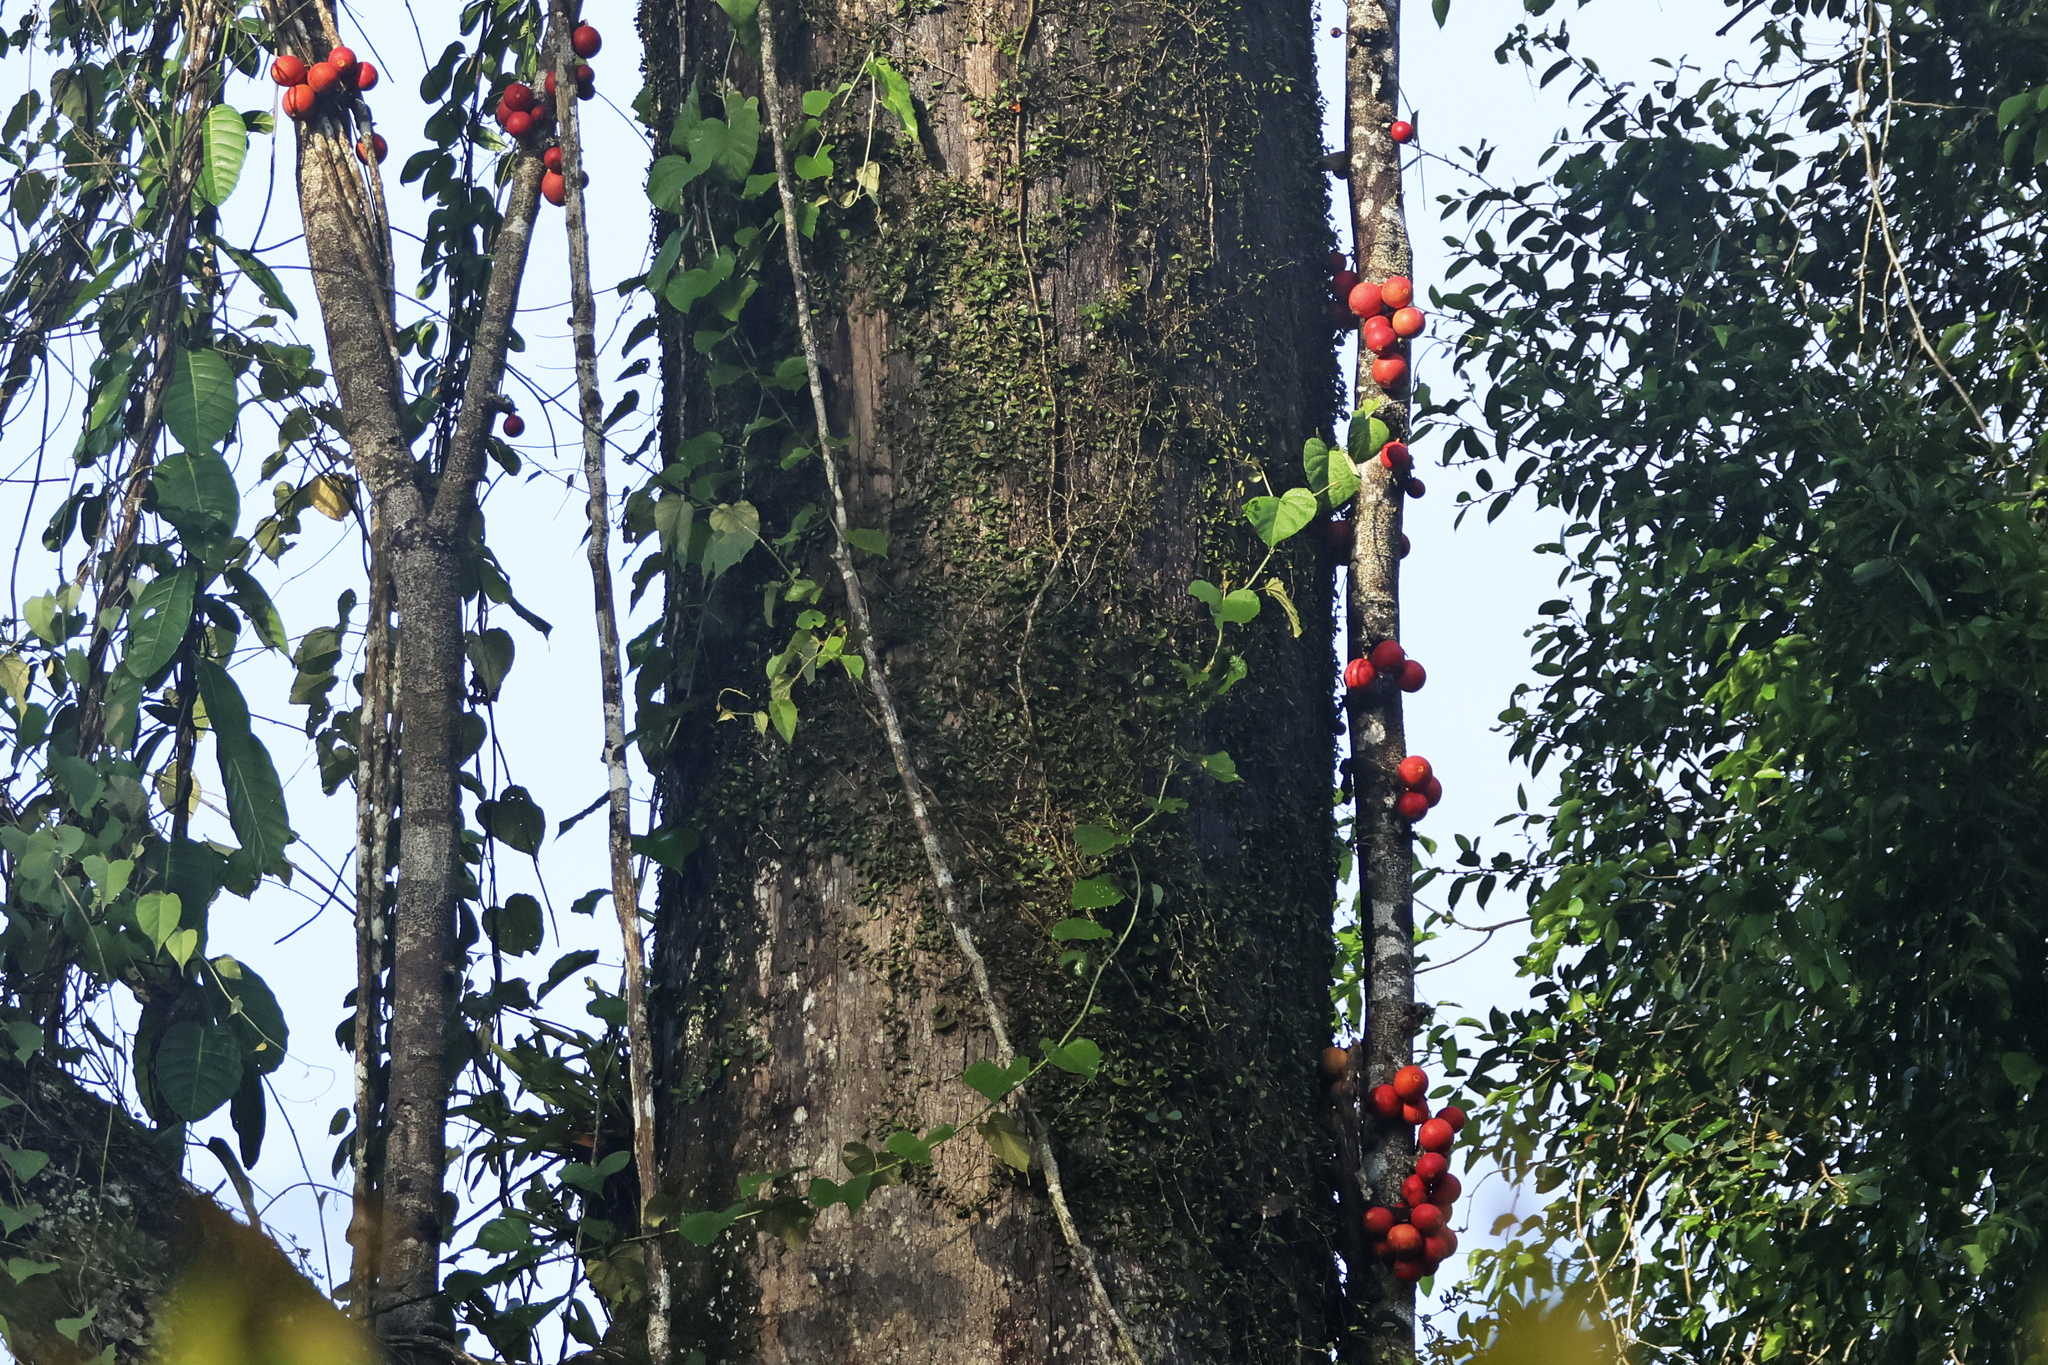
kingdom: Plantae
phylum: Tracheophyta
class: Magnoliopsida
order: Rosales
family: Moraceae
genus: Ficus
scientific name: Ficus punctata
